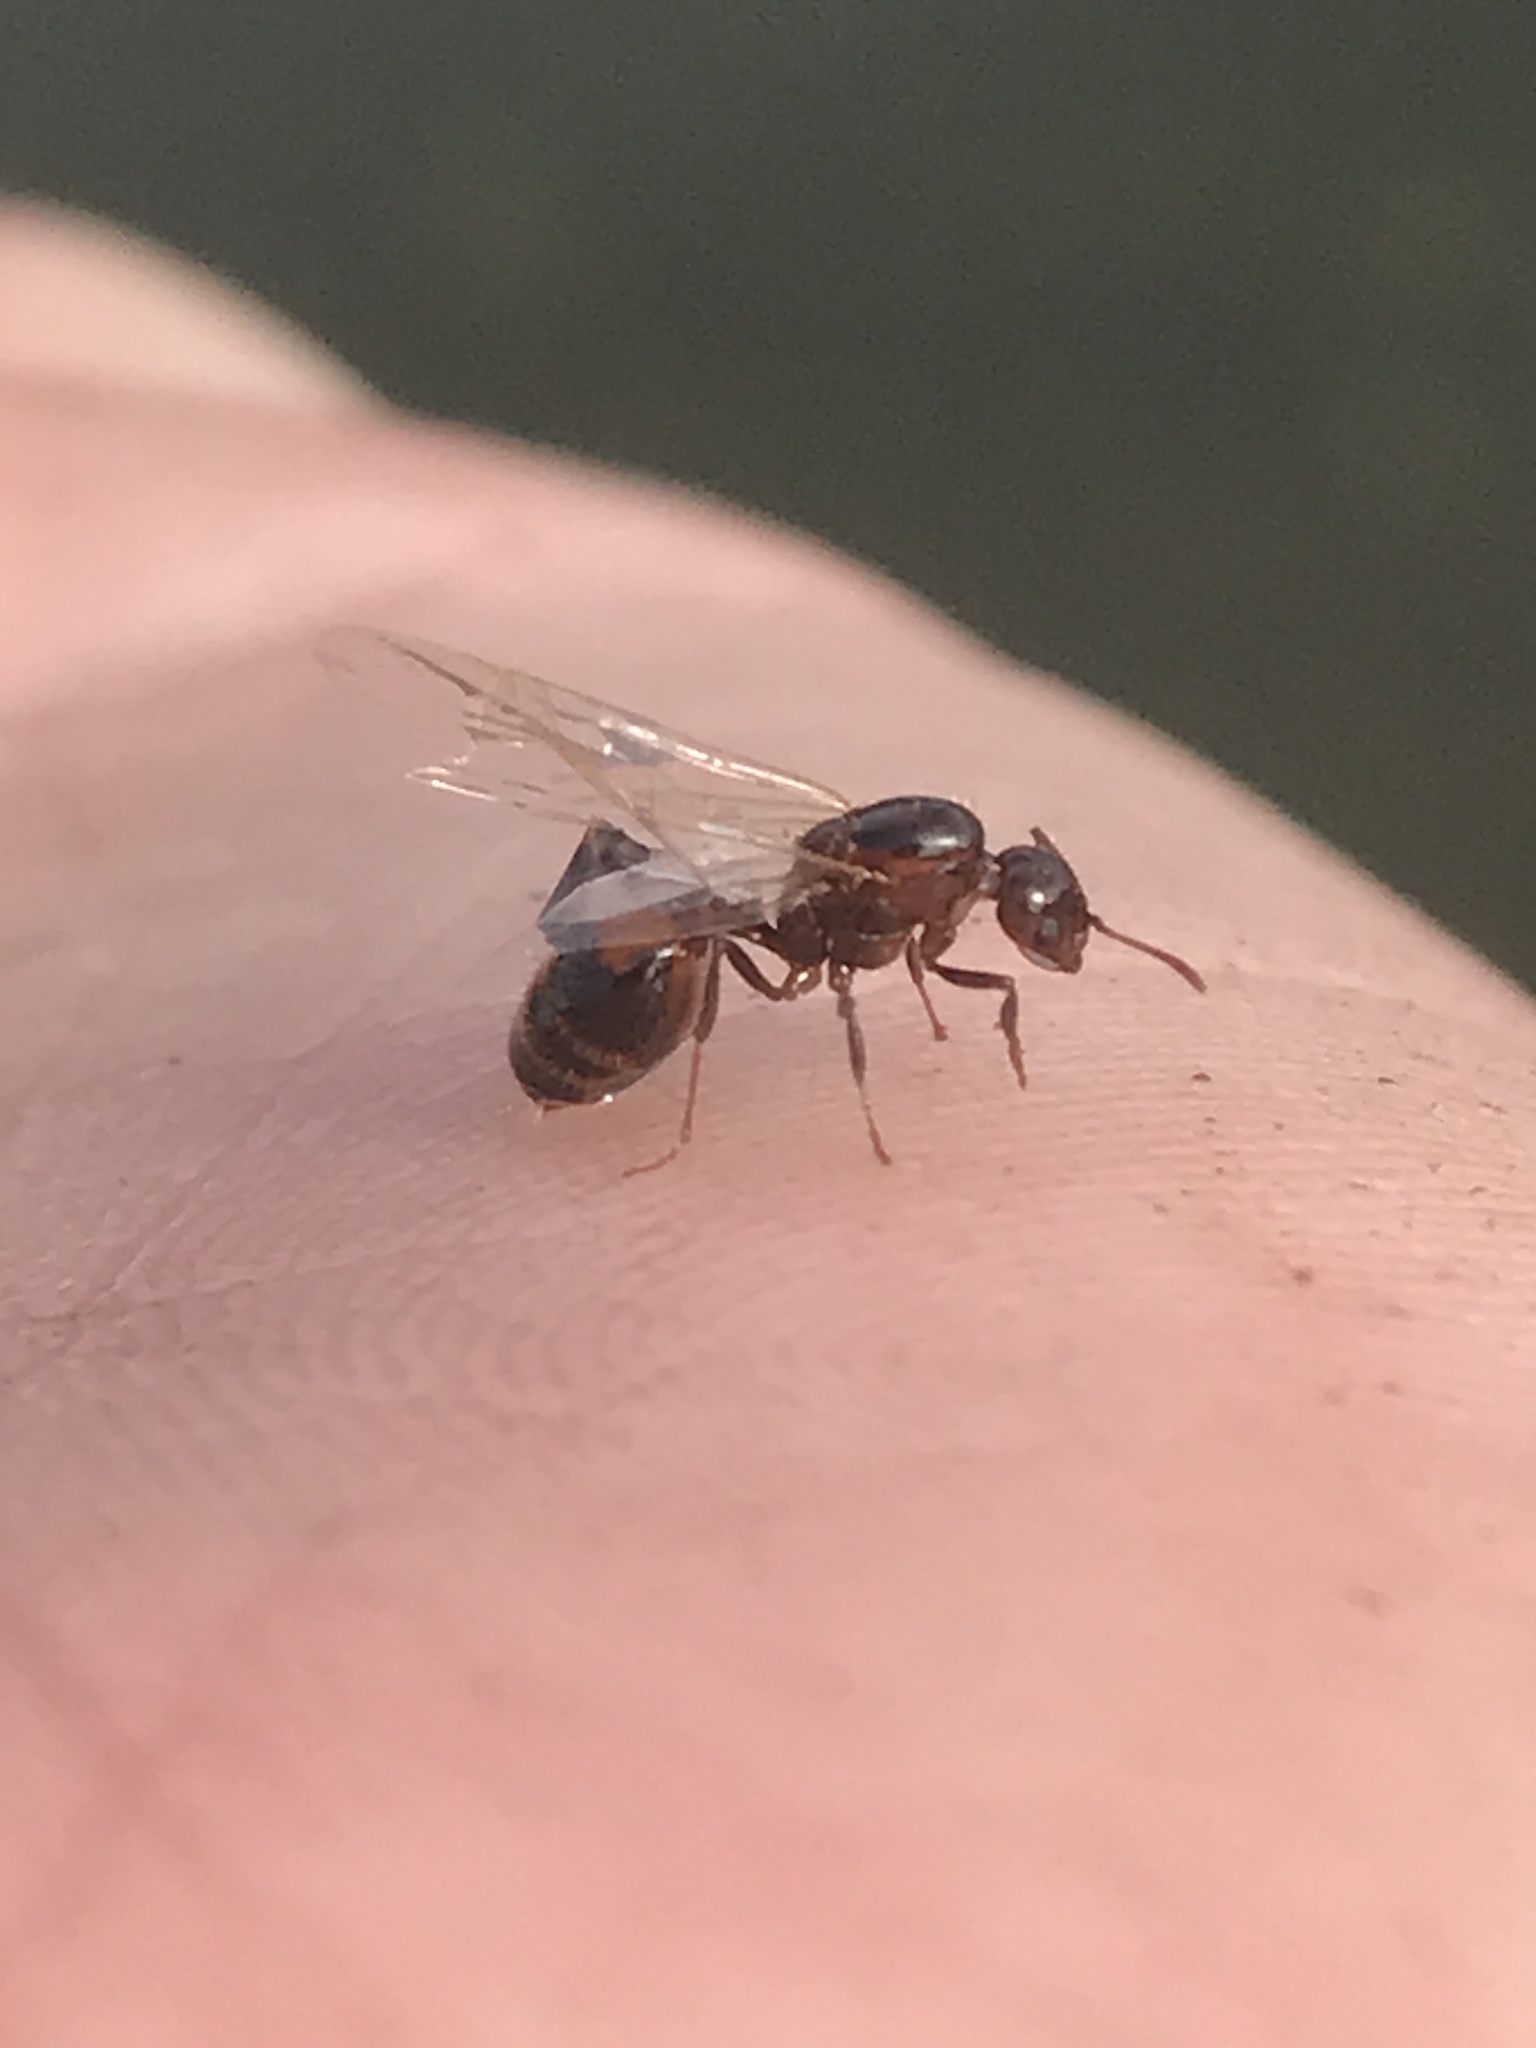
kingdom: Animalia
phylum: Arthropoda
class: Insecta
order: Hymenoptera
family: Formicidae
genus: Solenopsis
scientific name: Solenopsis
